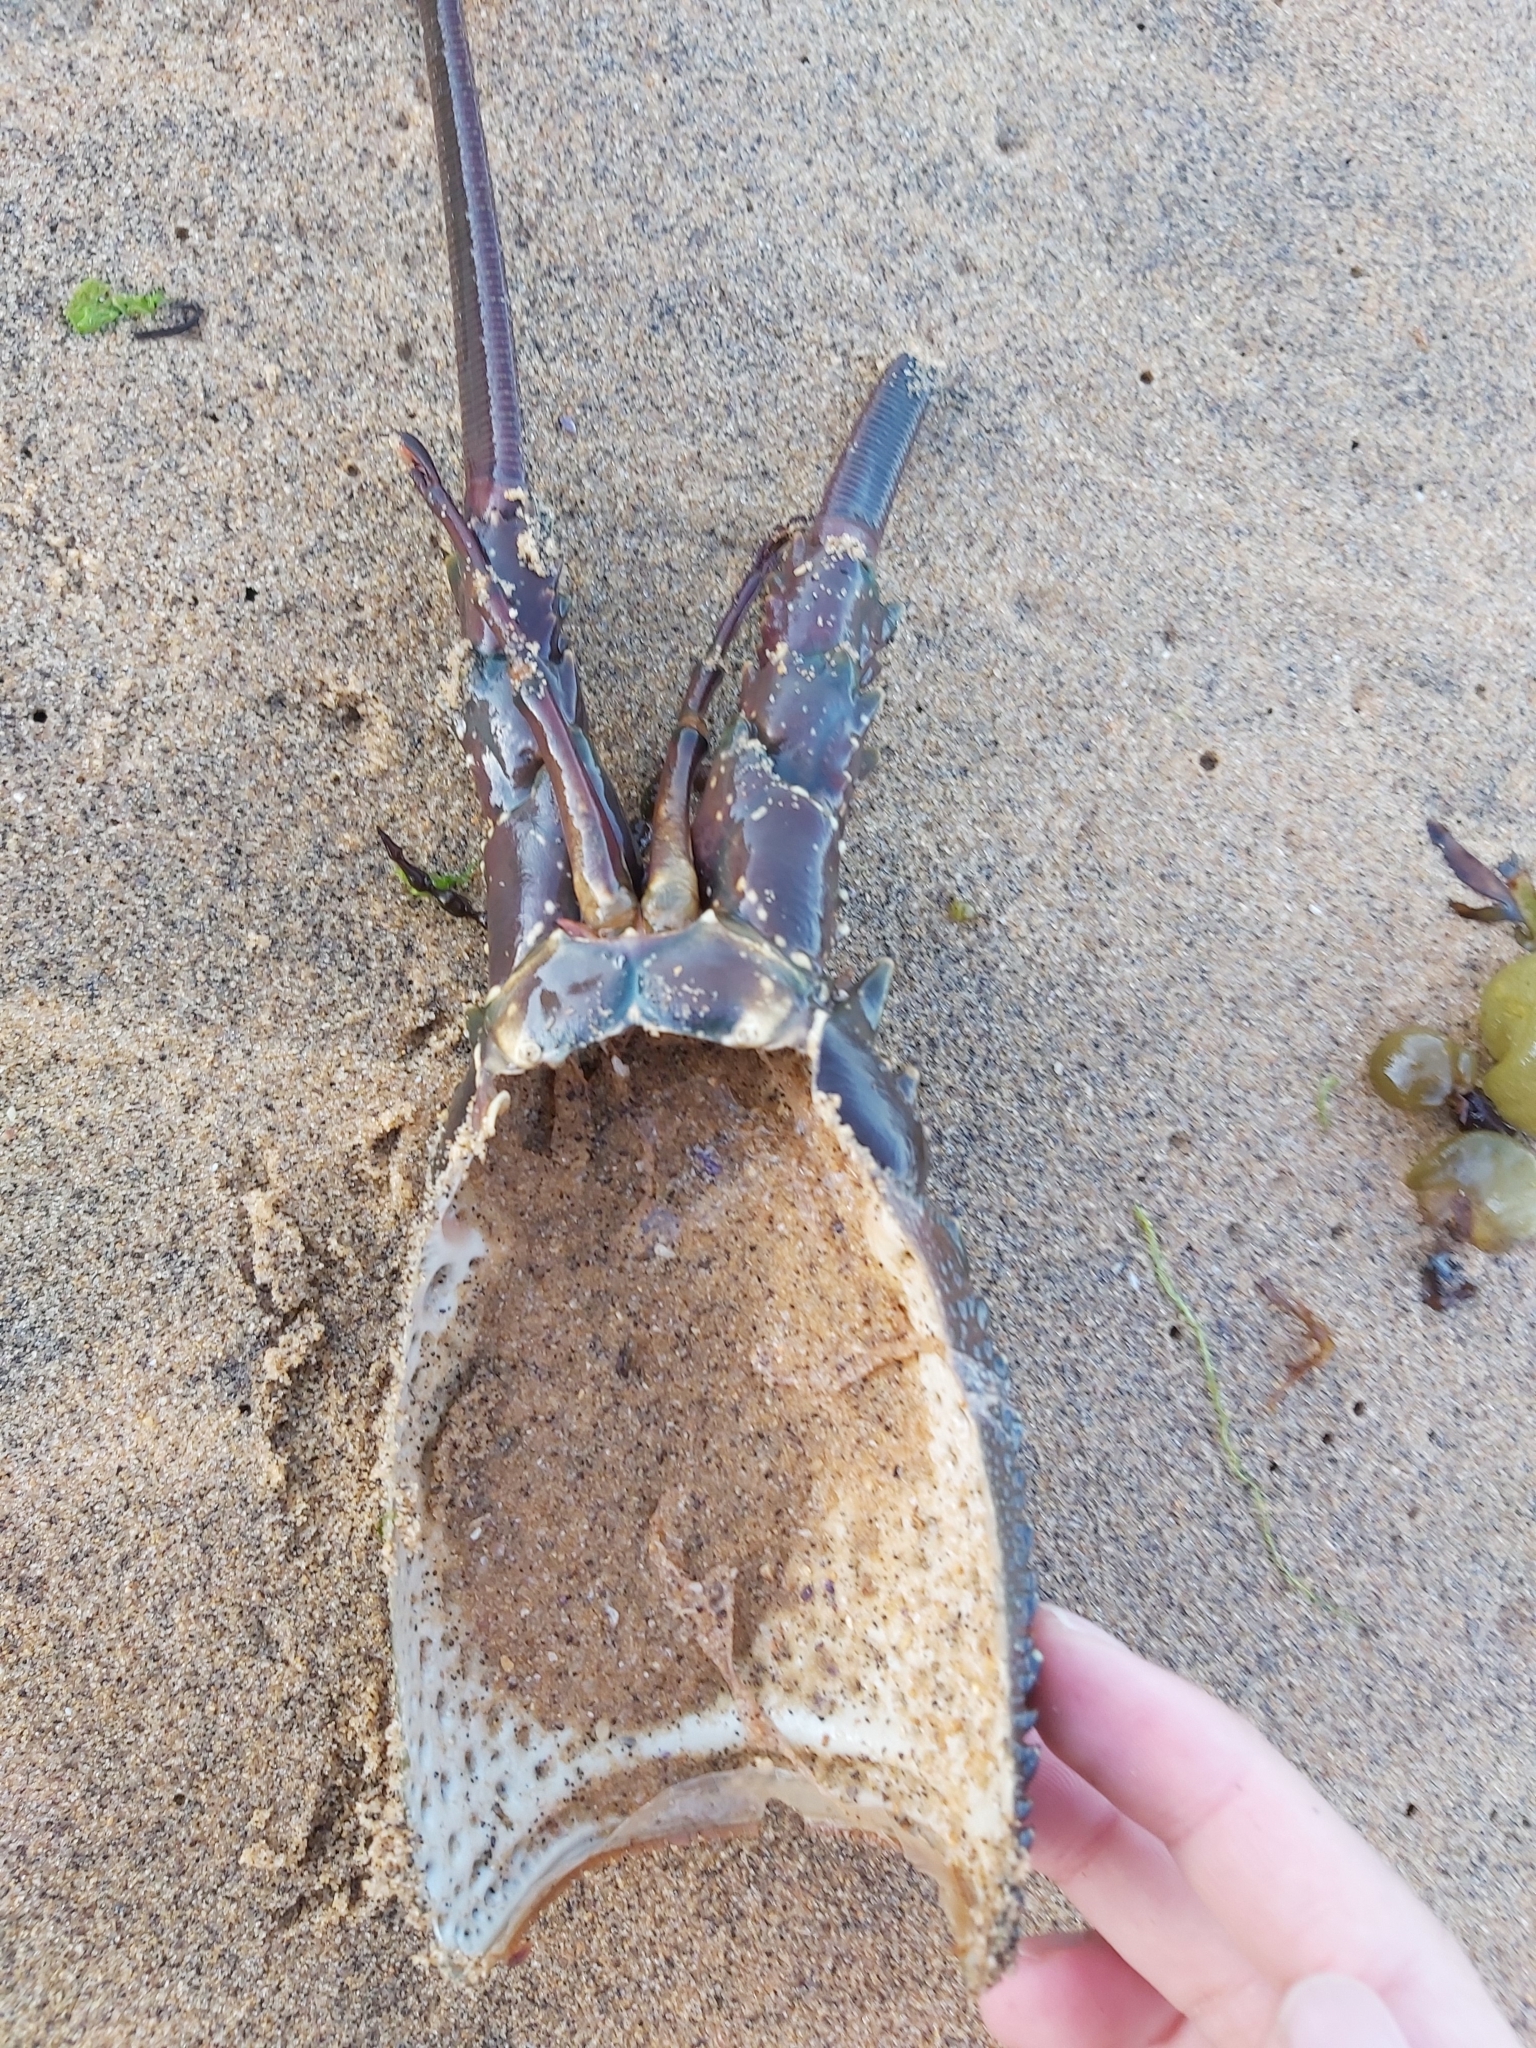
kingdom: Animalia
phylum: Arthropoda
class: Malacostraca
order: Decapoda
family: Palinuridae
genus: Sagmariasus
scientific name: Sagmariasus verreauxi
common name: Green rock lobster
